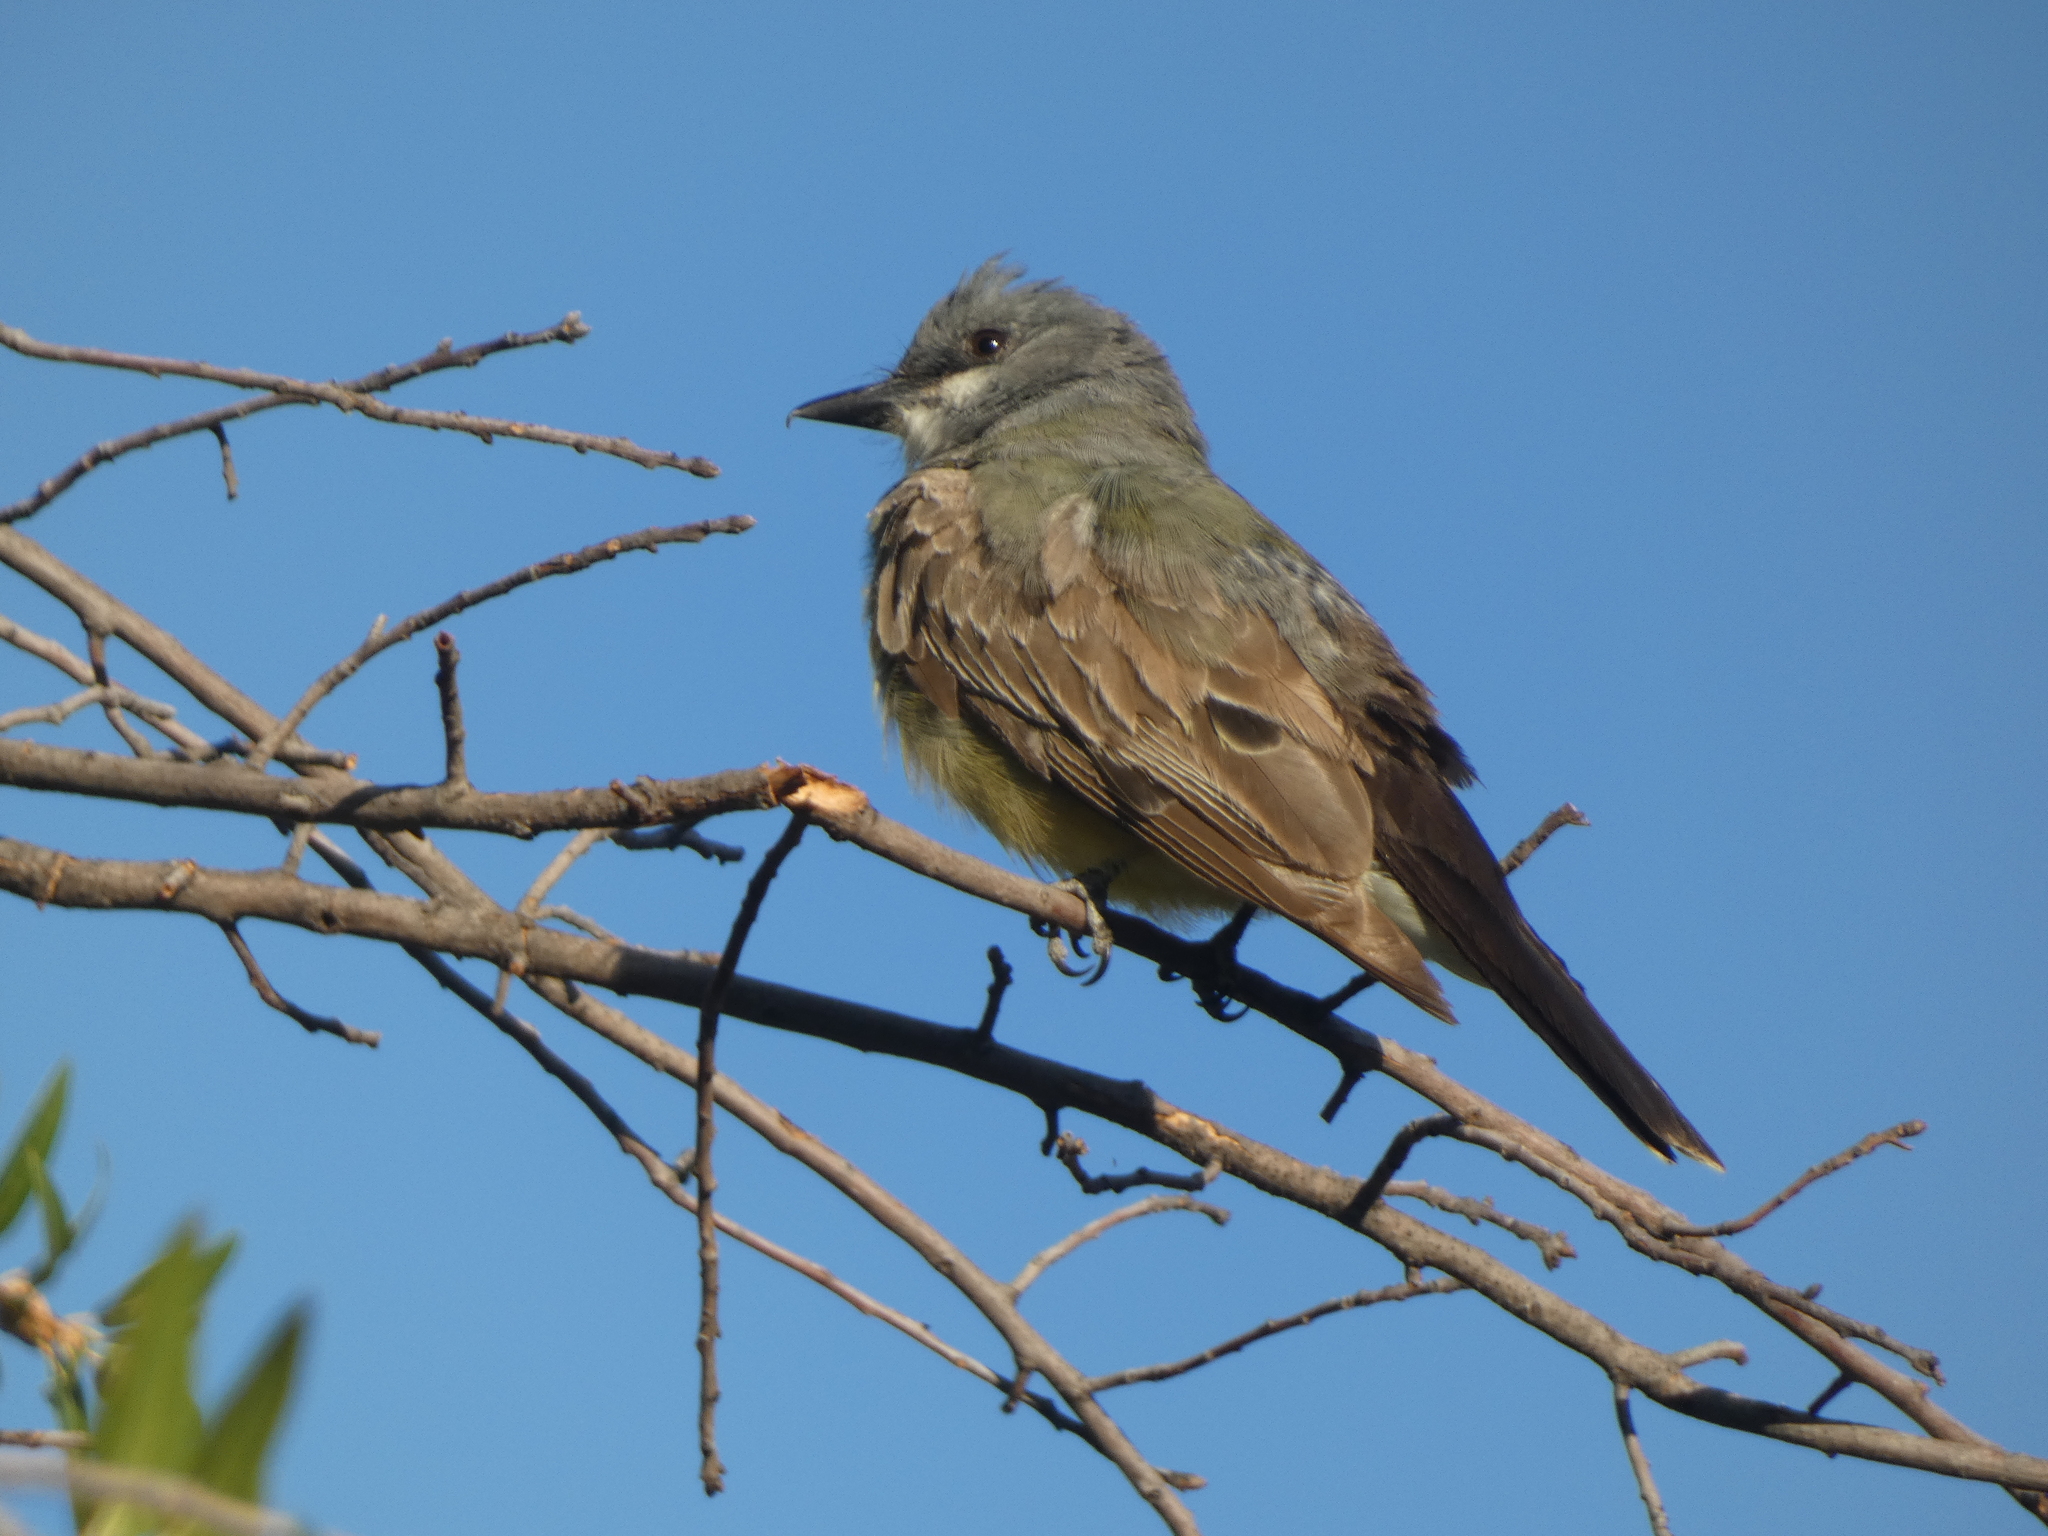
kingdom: Animalia
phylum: Chordata
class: Aves
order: Passeriformes
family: Tyrannidae
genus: Tyrannus
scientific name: Tyrannus vociferans
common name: Cassin's kingbird
